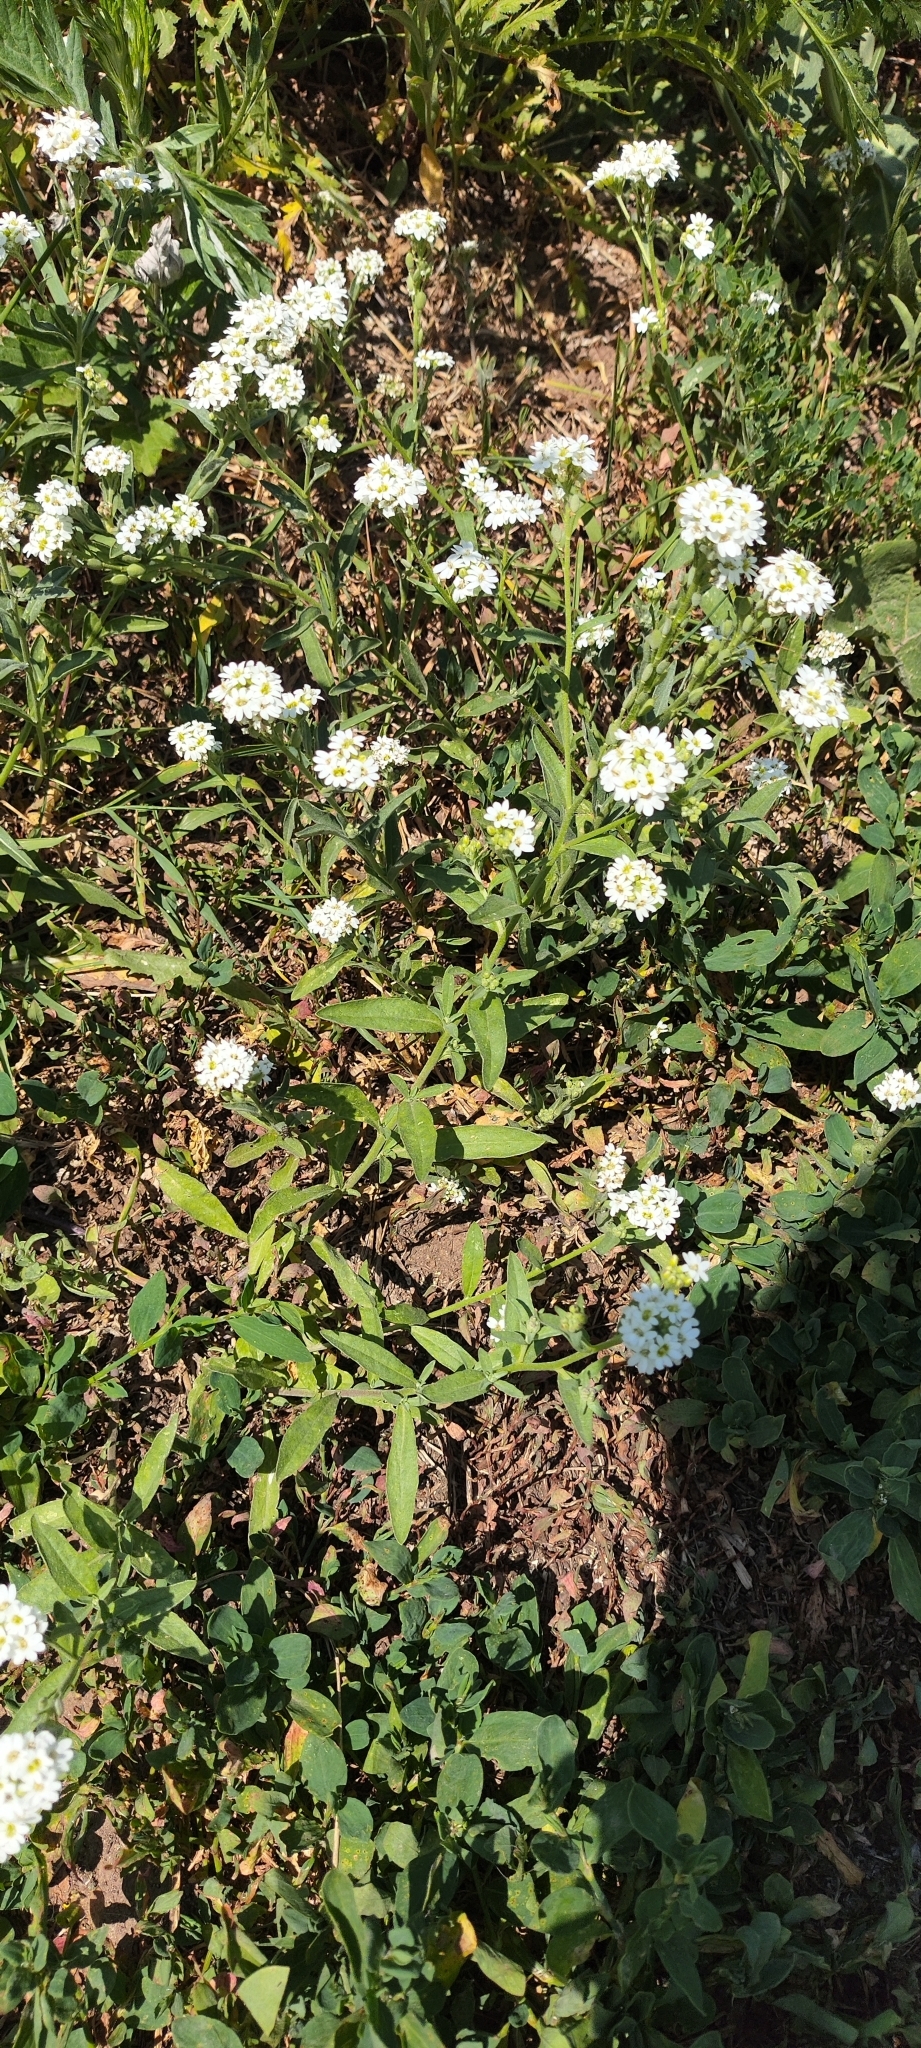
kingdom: Plantae
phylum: Tracheophyta
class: Magnoliopsida
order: Brassicales
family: Brassicaceae
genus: Berteroa
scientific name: Berteroa incana
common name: Hoary alison
